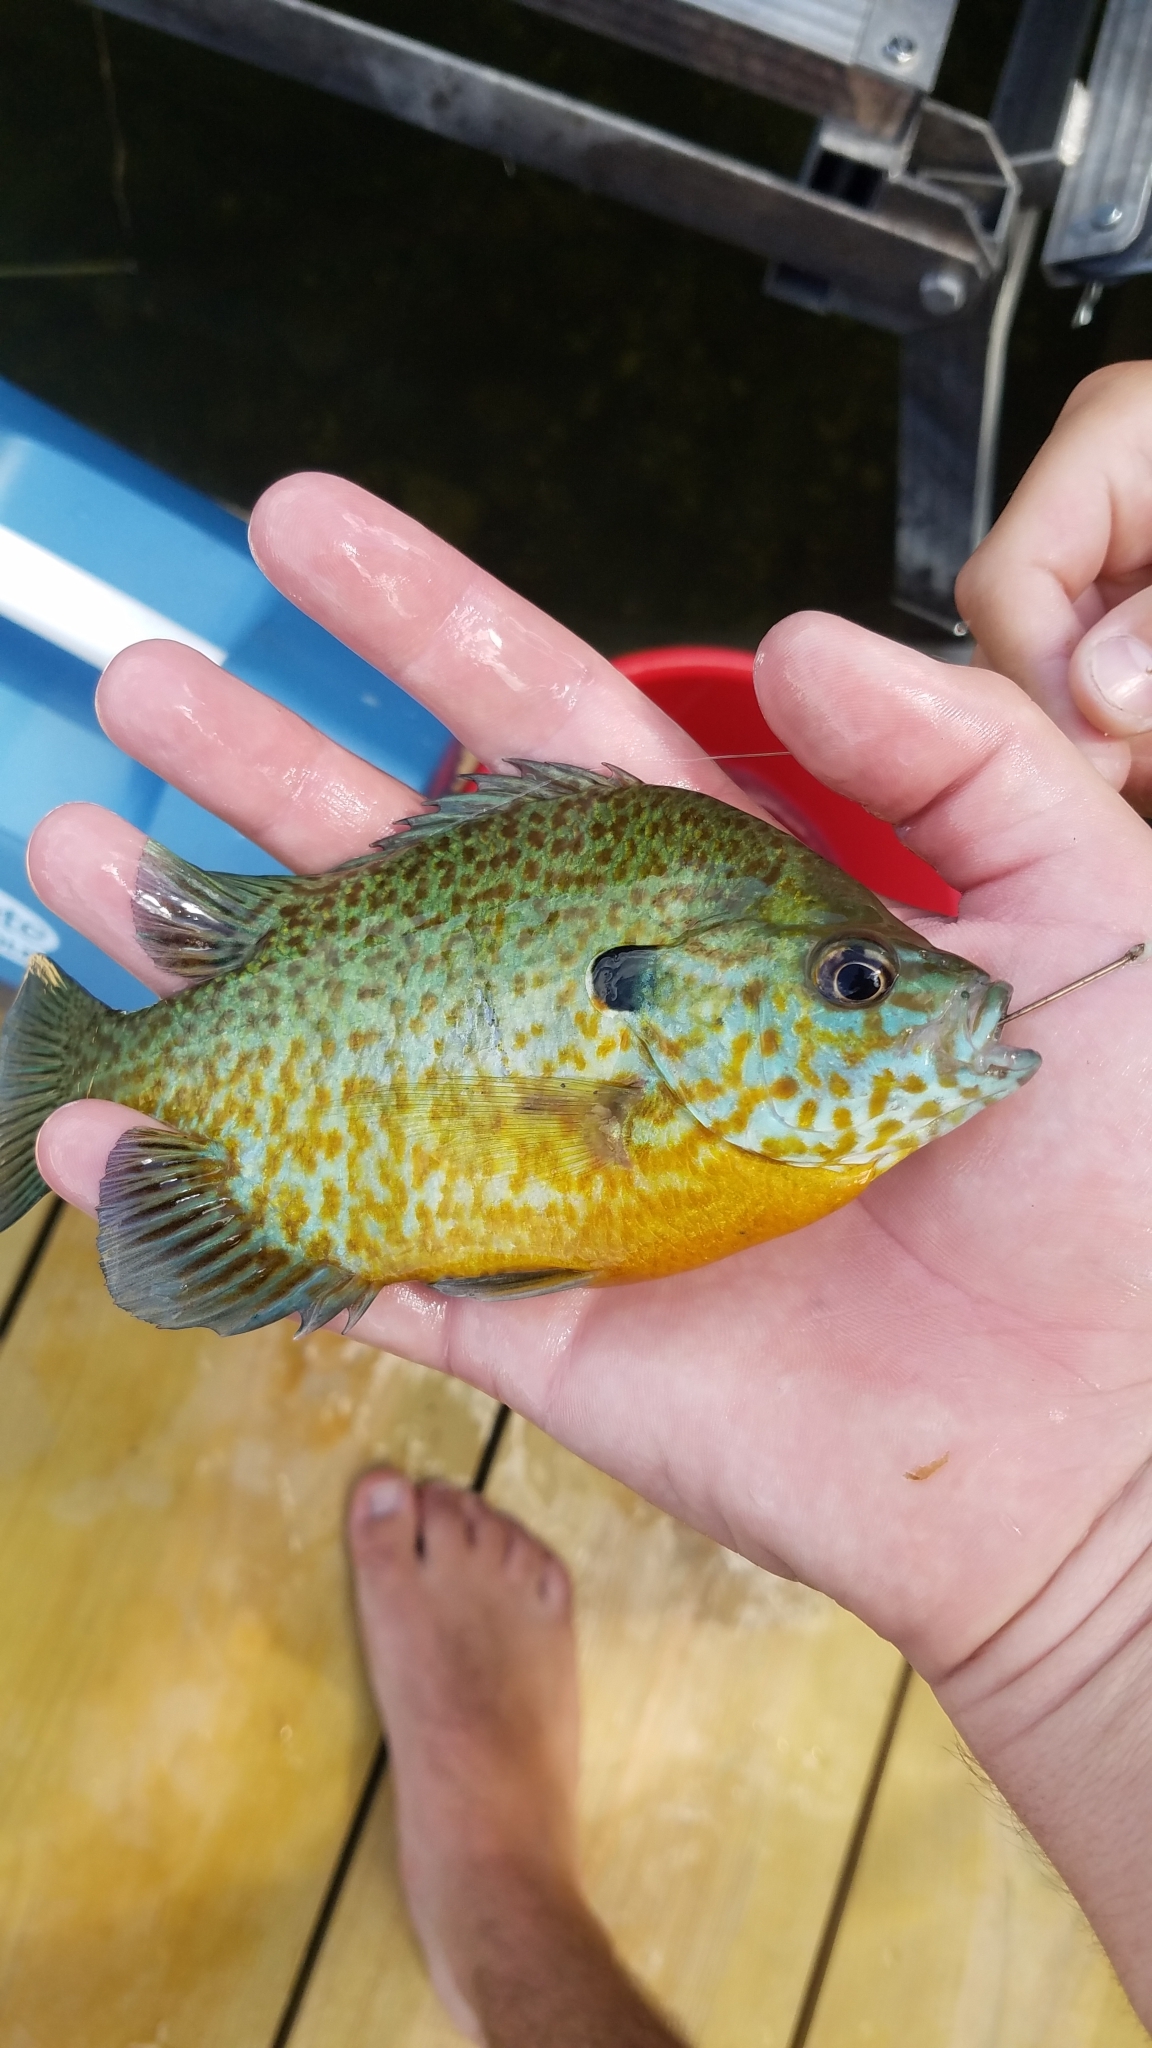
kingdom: Animalia
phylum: Chordata
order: Perciformes
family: Centrarchidae
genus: Lepomis
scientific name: Lepomis
